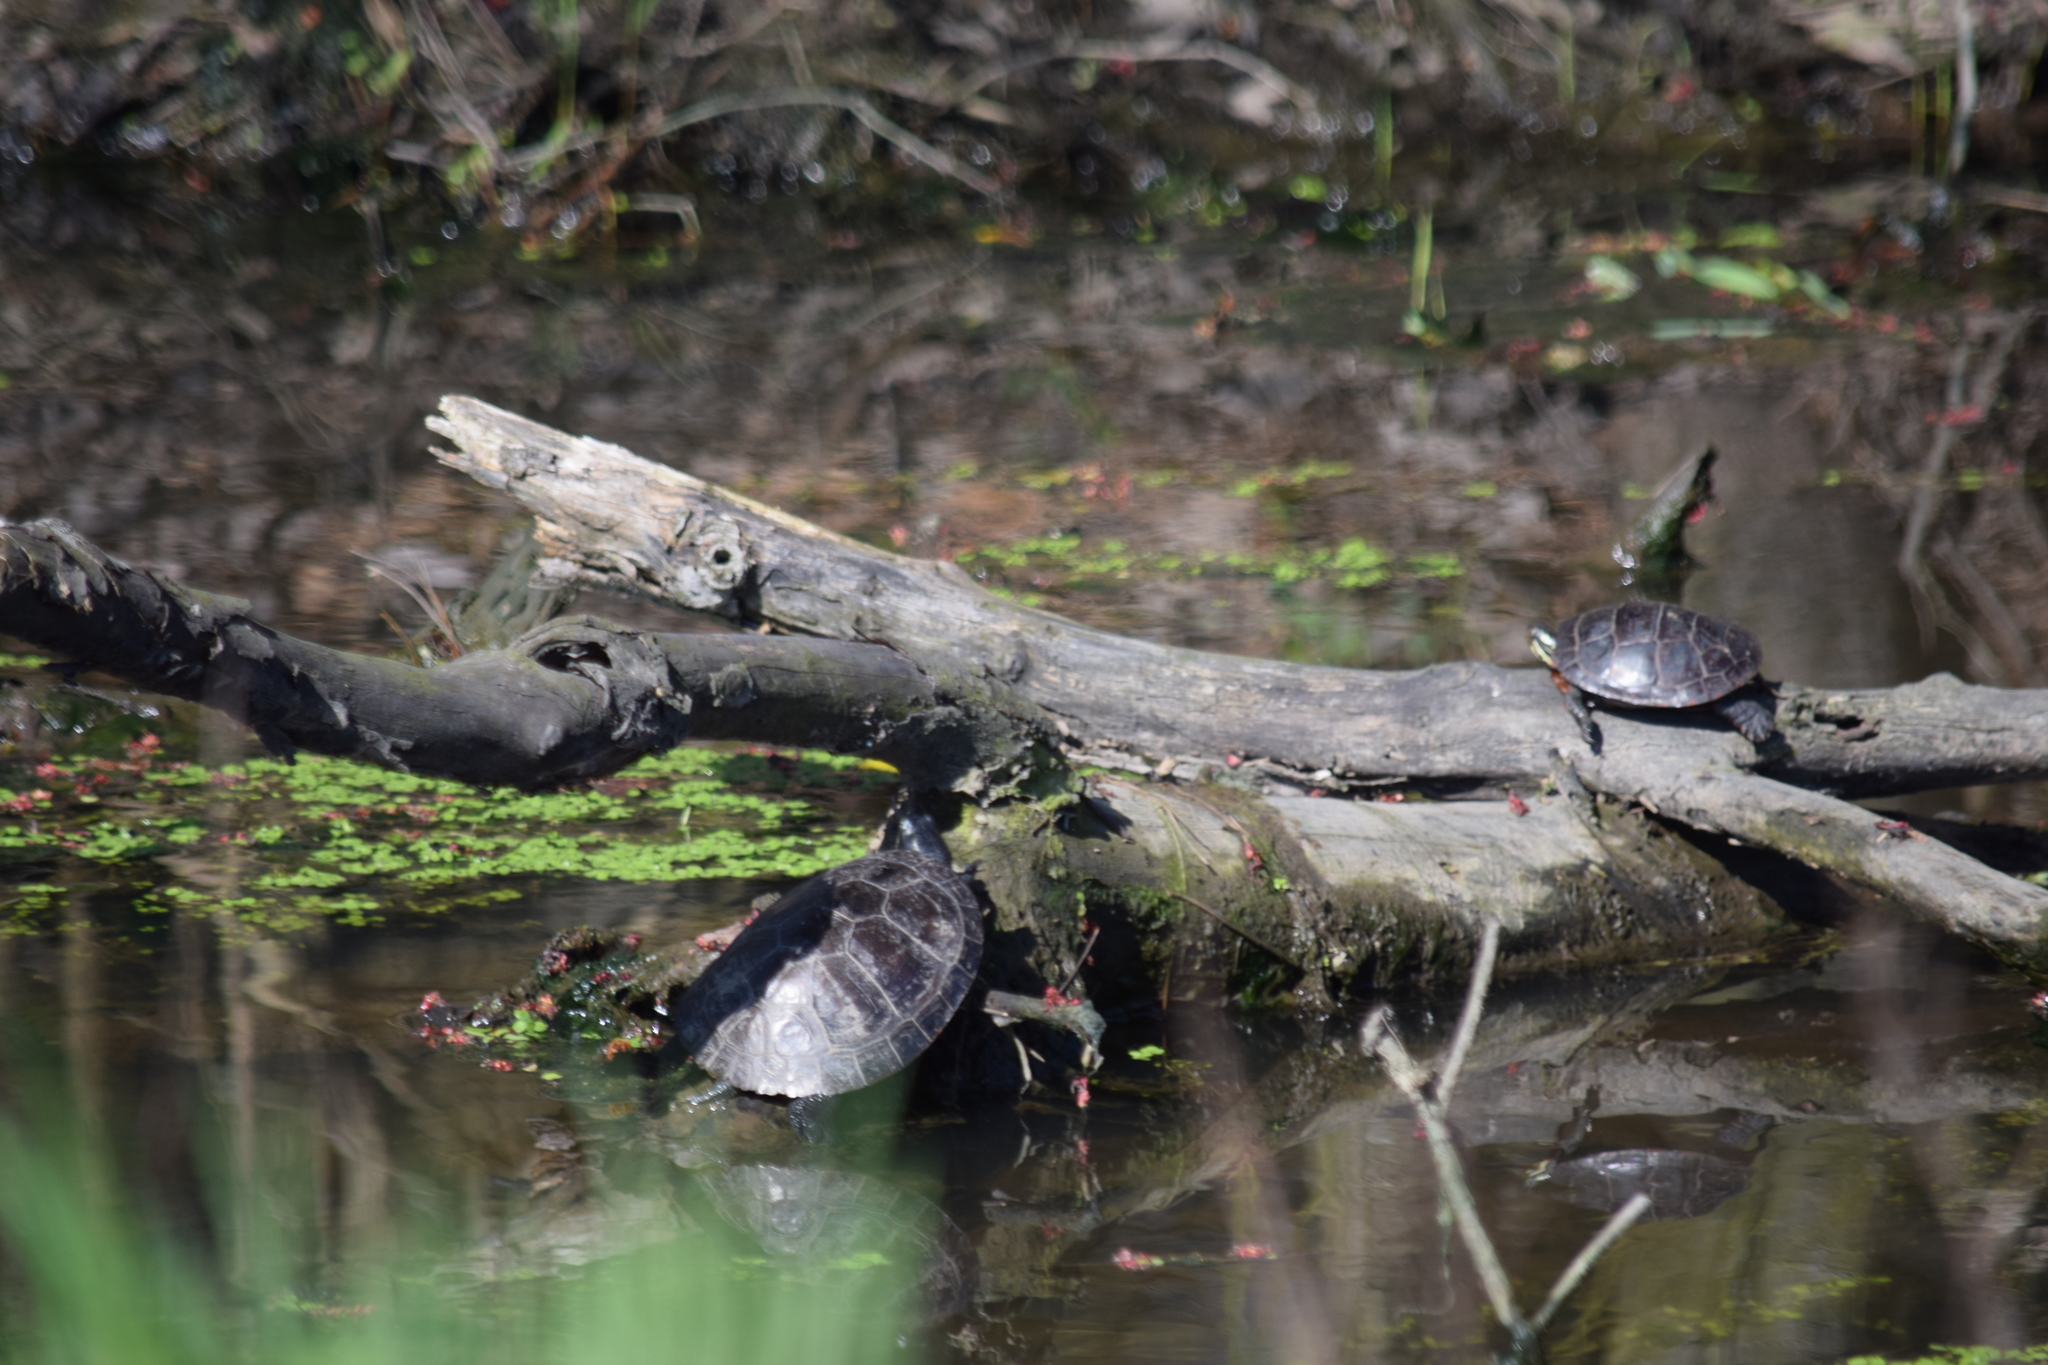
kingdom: Animalia
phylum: Chordata
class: Testudines
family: Emydidae
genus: Pseudemys
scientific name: Pseudemys rubriventris
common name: American red-bellied turtle
